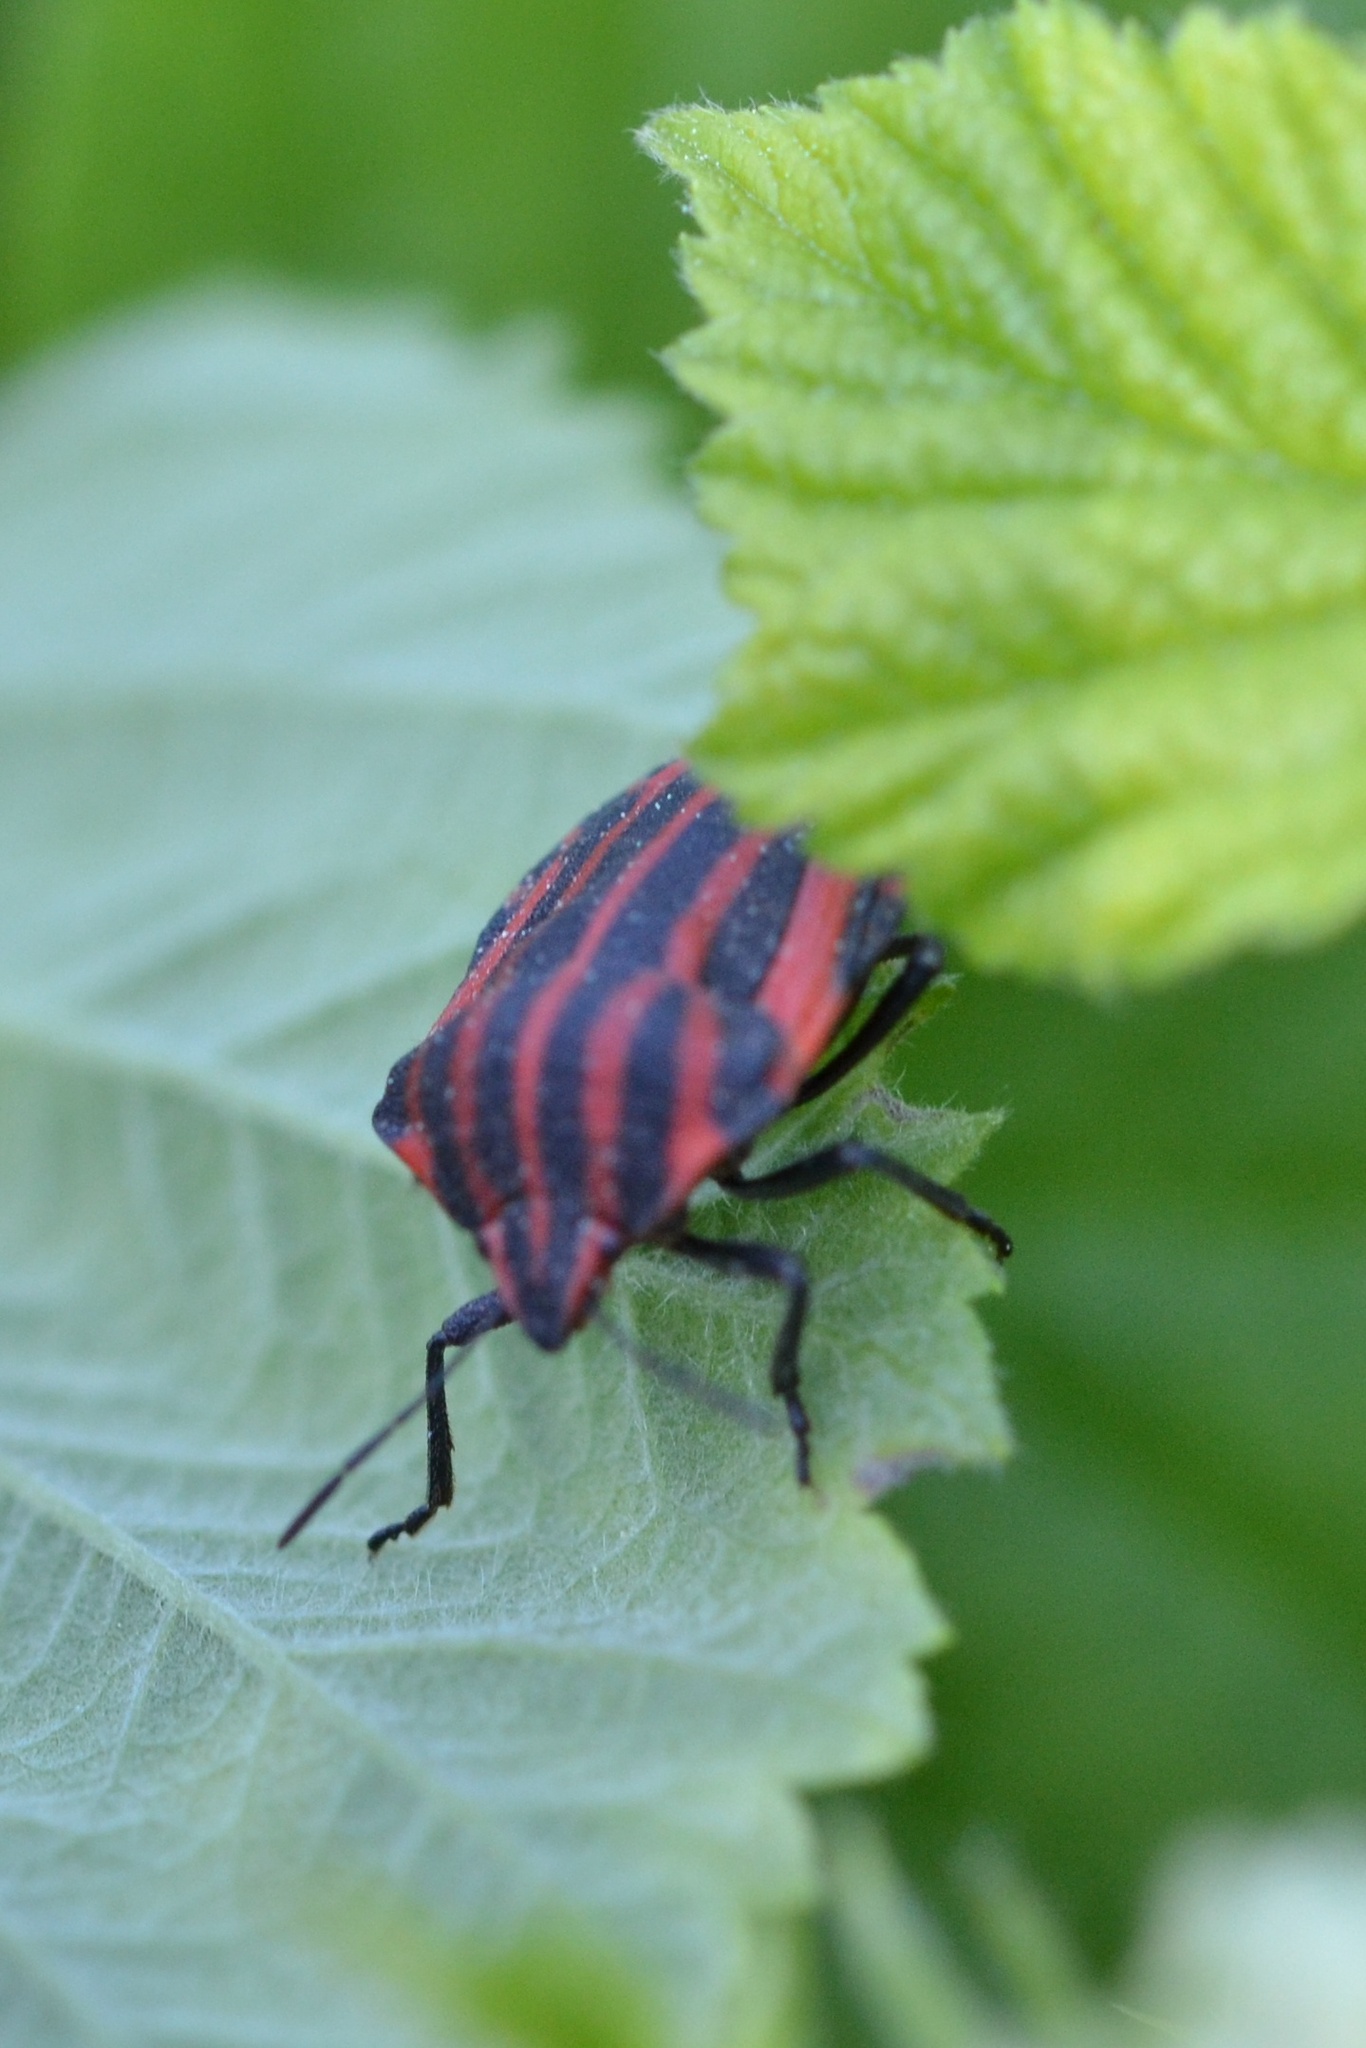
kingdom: Animalia
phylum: Arthropoda
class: Insecta
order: Hemiptera
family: Pentatomidae
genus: Graphosoma
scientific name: Graphosoma italicum
